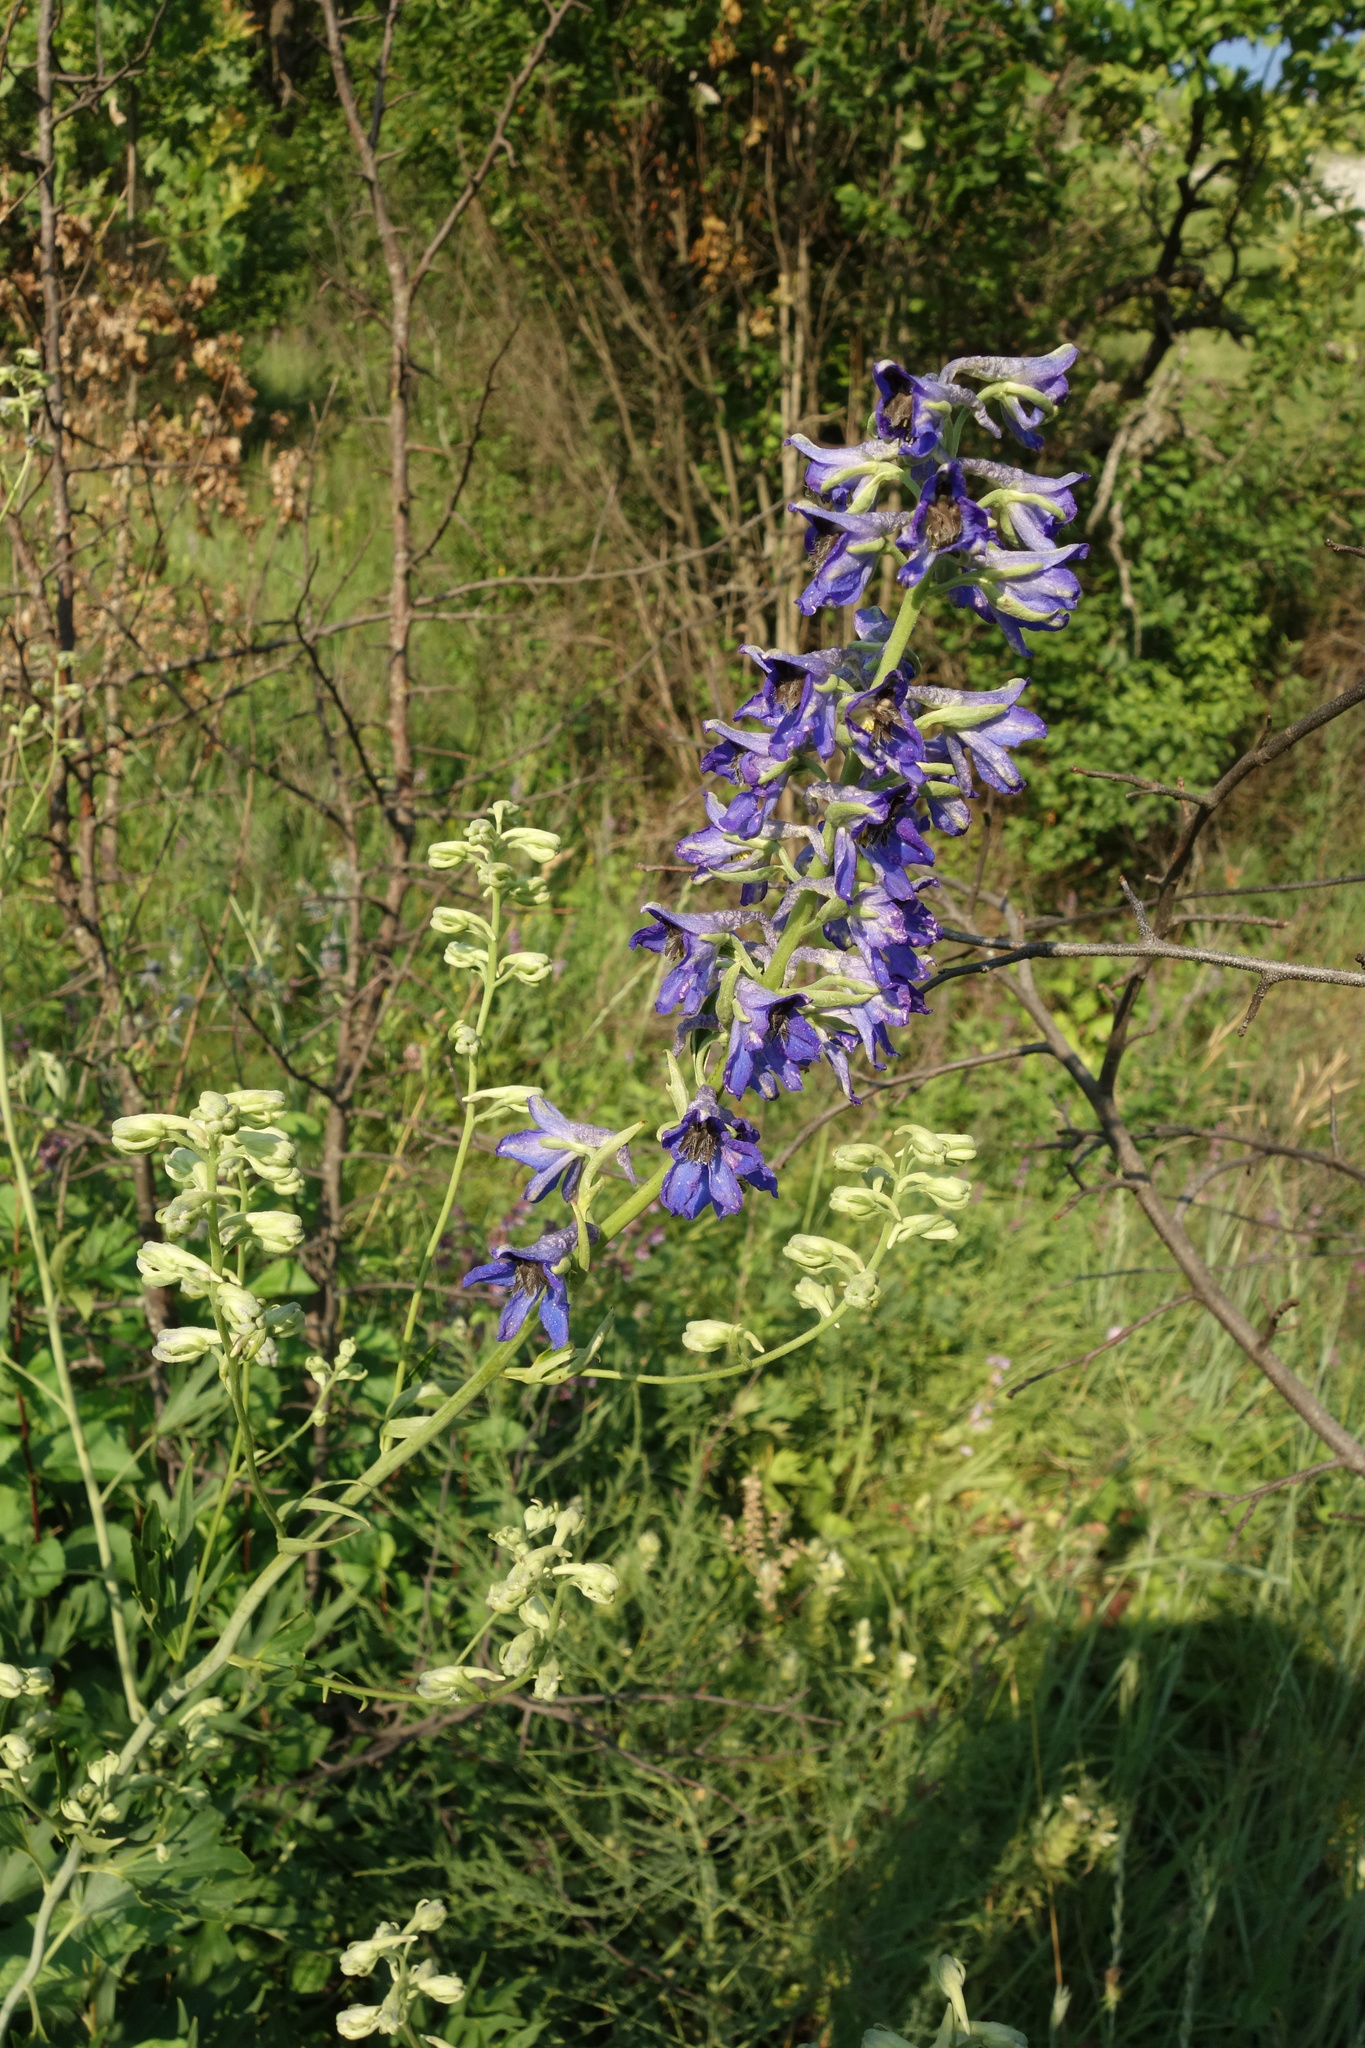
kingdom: Plantae
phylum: Tracheophyta
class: Magnoliopsida
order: Ranunculales
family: Ranunculaceae
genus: Delphinium
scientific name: Delphinium cuneatum
